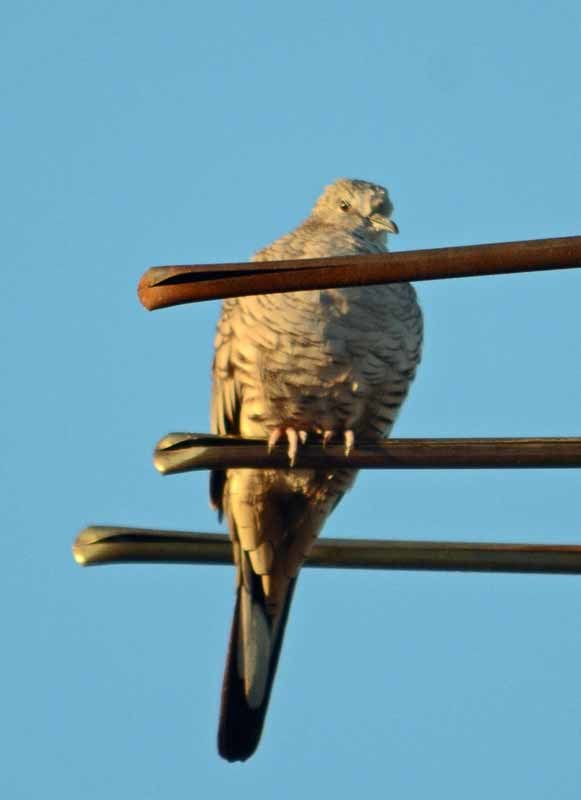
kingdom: Animalia
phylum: Chordata
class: Aves
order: Columbiformes
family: Columbidae
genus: Columbina
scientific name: Columbina inca
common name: Inca dove
